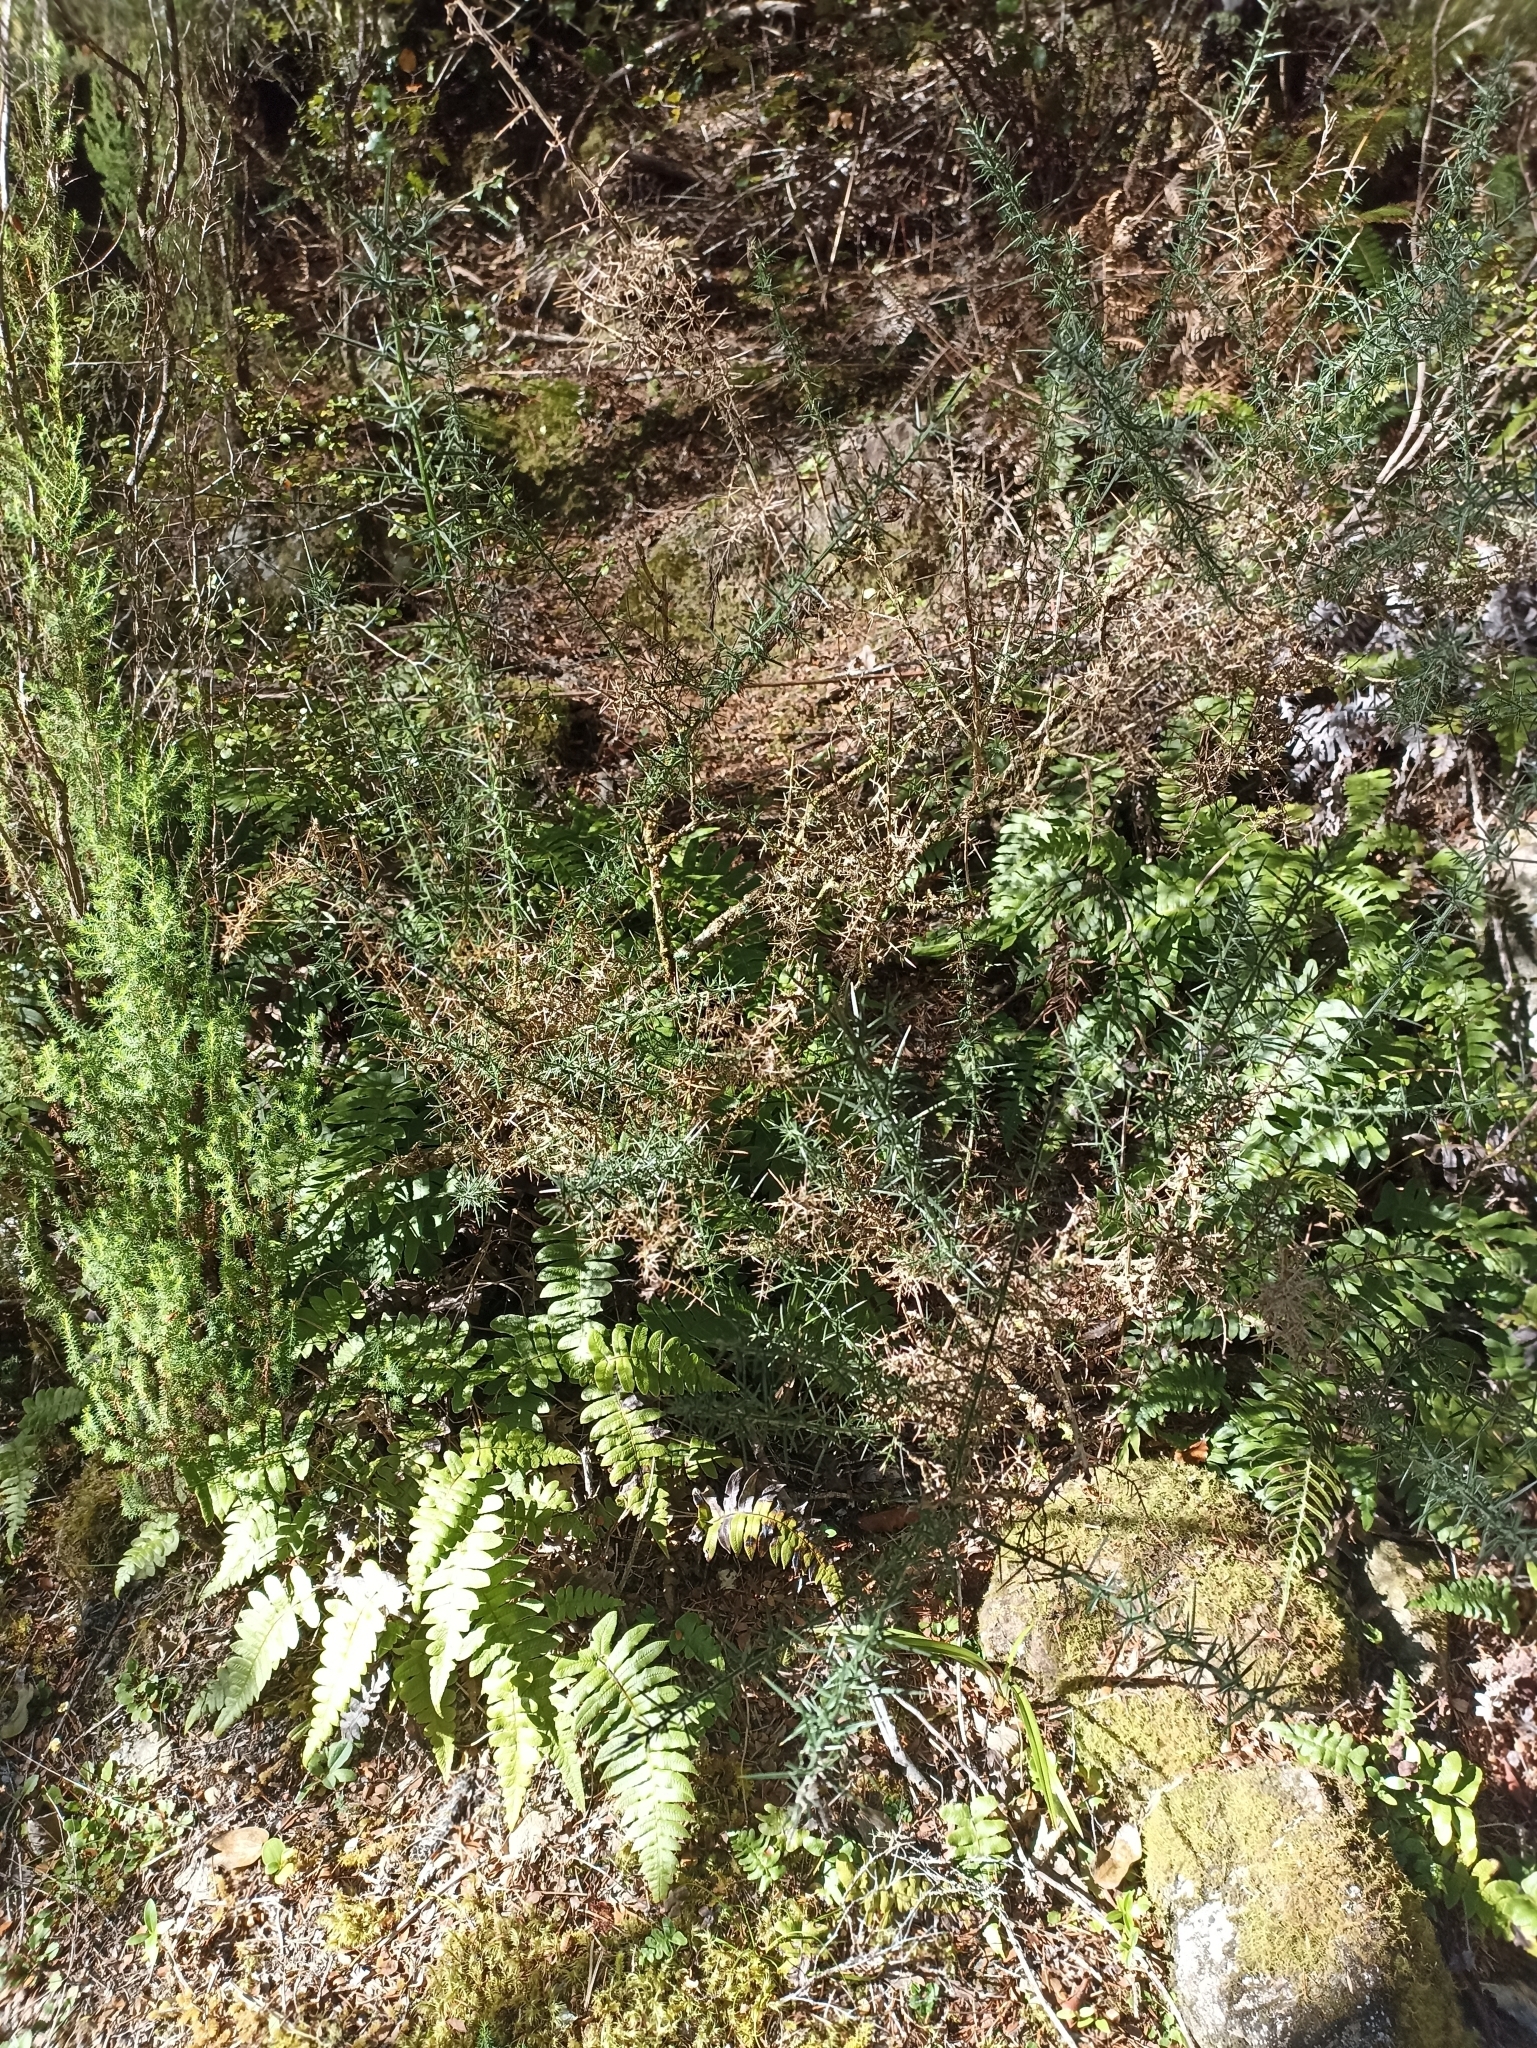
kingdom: Plantae
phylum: Tracheophyta
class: Magnoliopsida
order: Fabales
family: Fabaceae
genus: Ulex
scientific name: Ulex europaeus
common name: Common gorse
